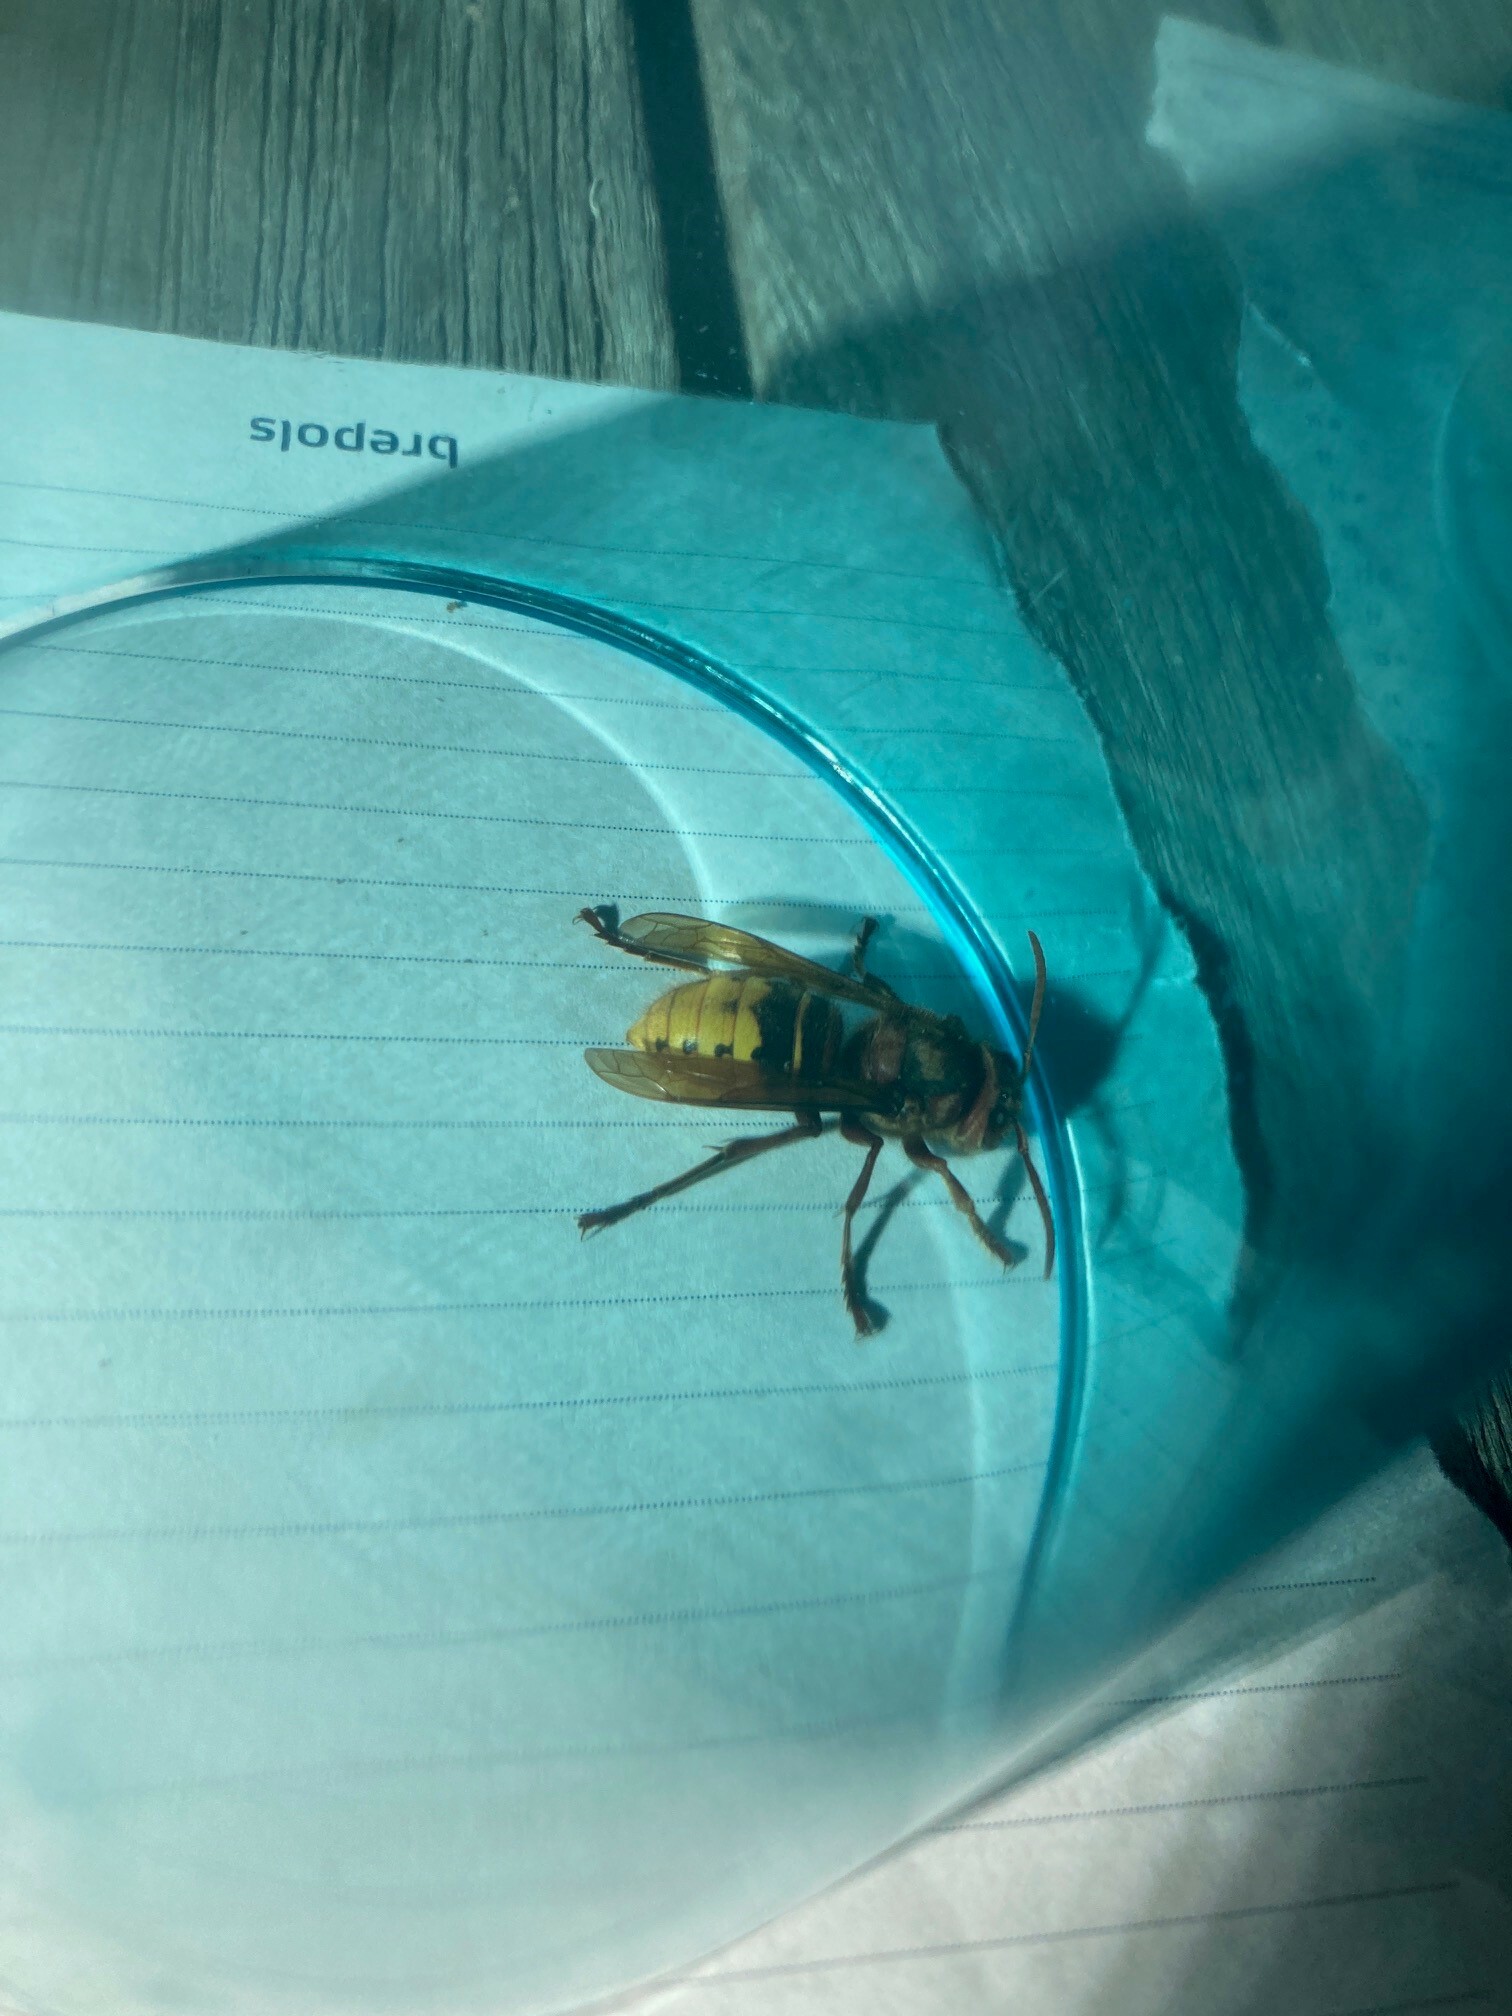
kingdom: Animalia
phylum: Arthropoda
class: Insecta
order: Hymenoptera
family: Vespidae
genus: Vespa
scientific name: Vespa crabro
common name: Hornet
